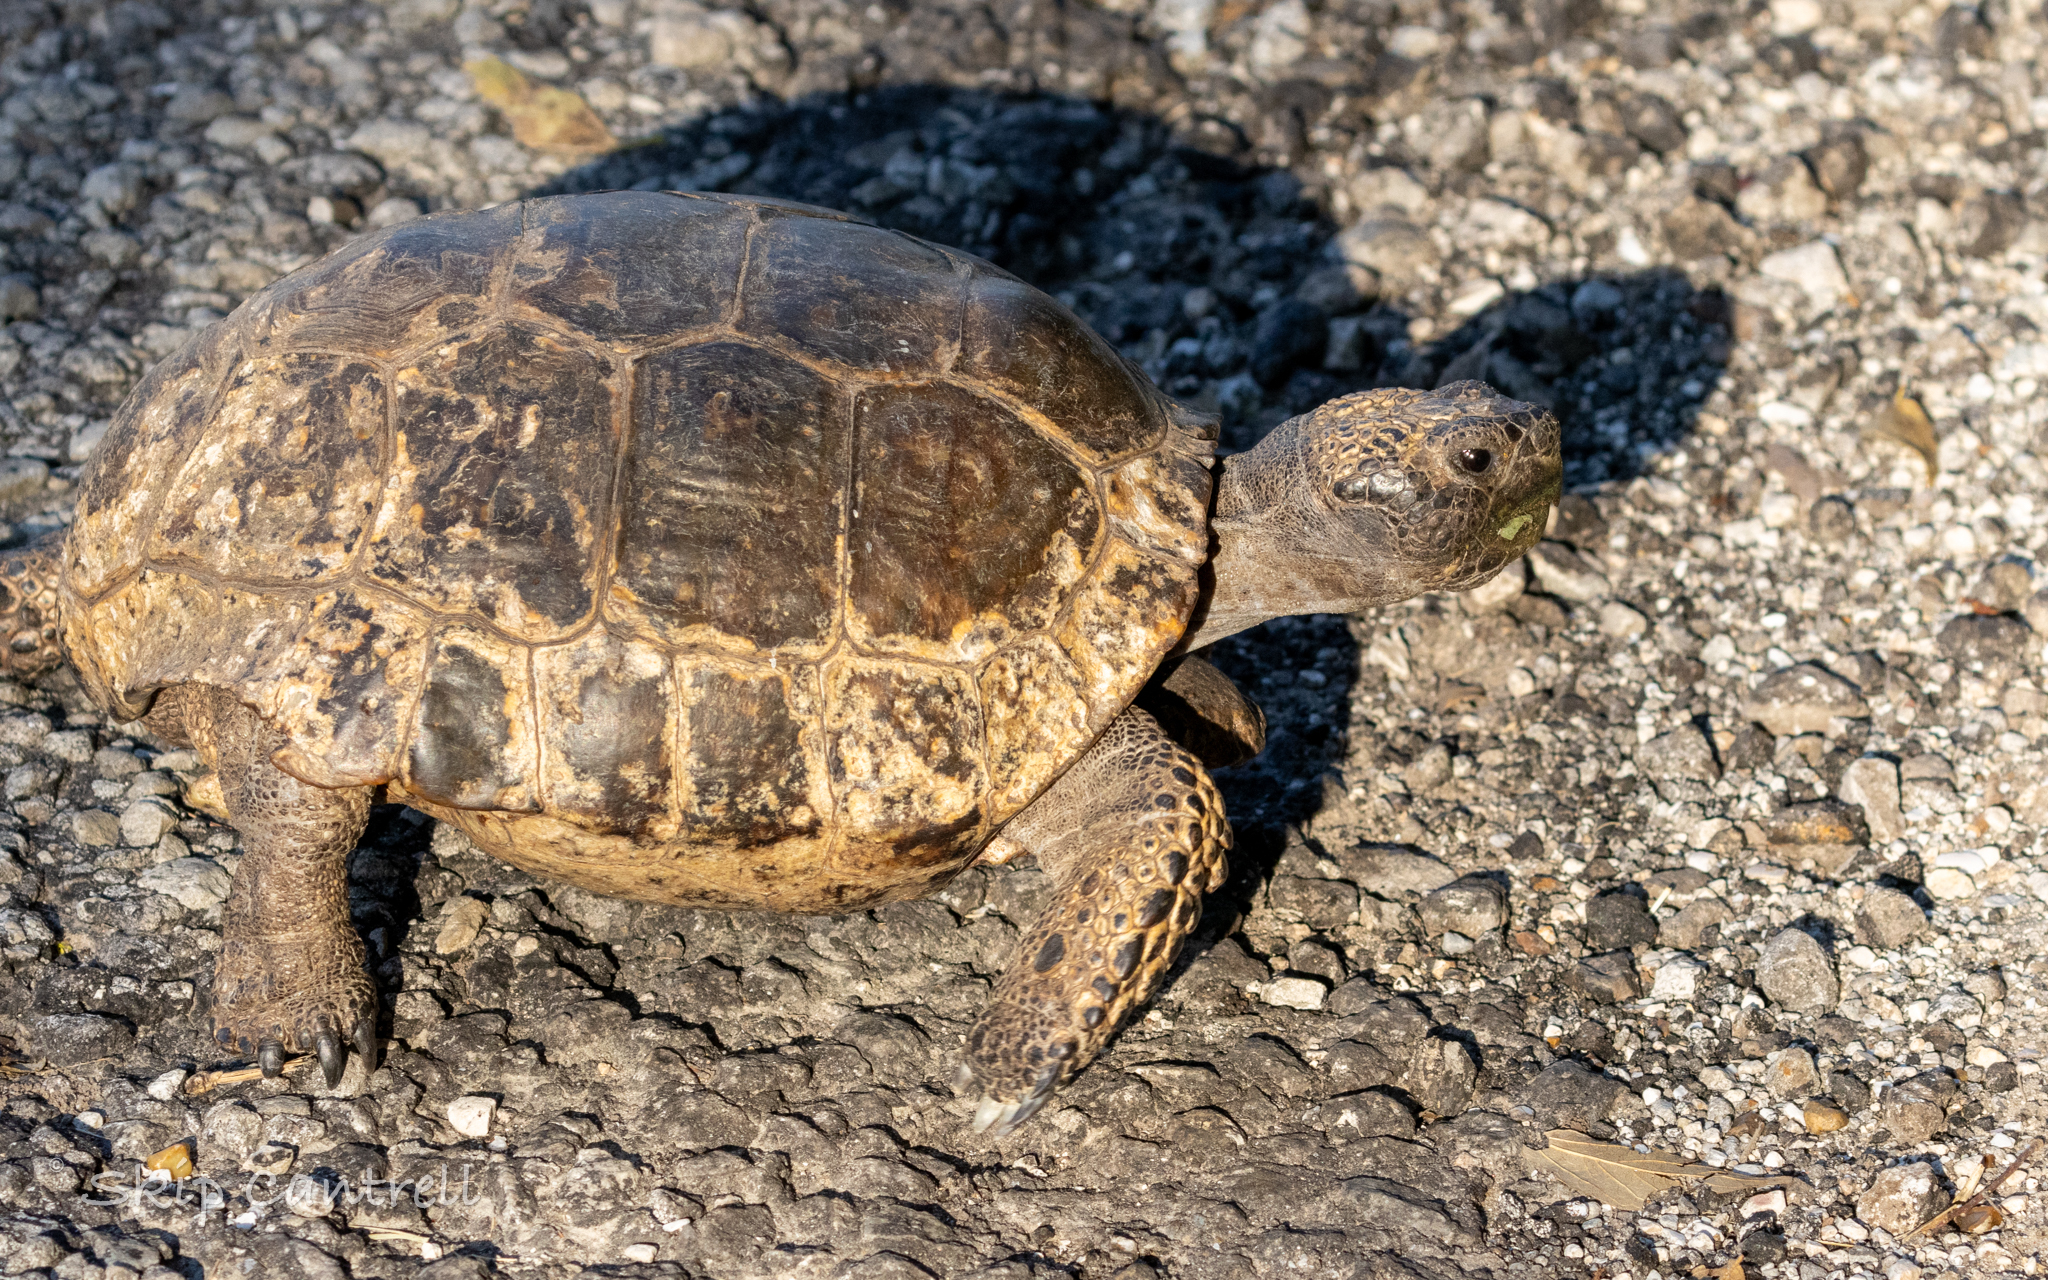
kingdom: Animalia
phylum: Chordata
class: Testudines
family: Testudinidae
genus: Gopherus
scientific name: Gopherus berlandieri
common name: Texas (gopher )tortoise
